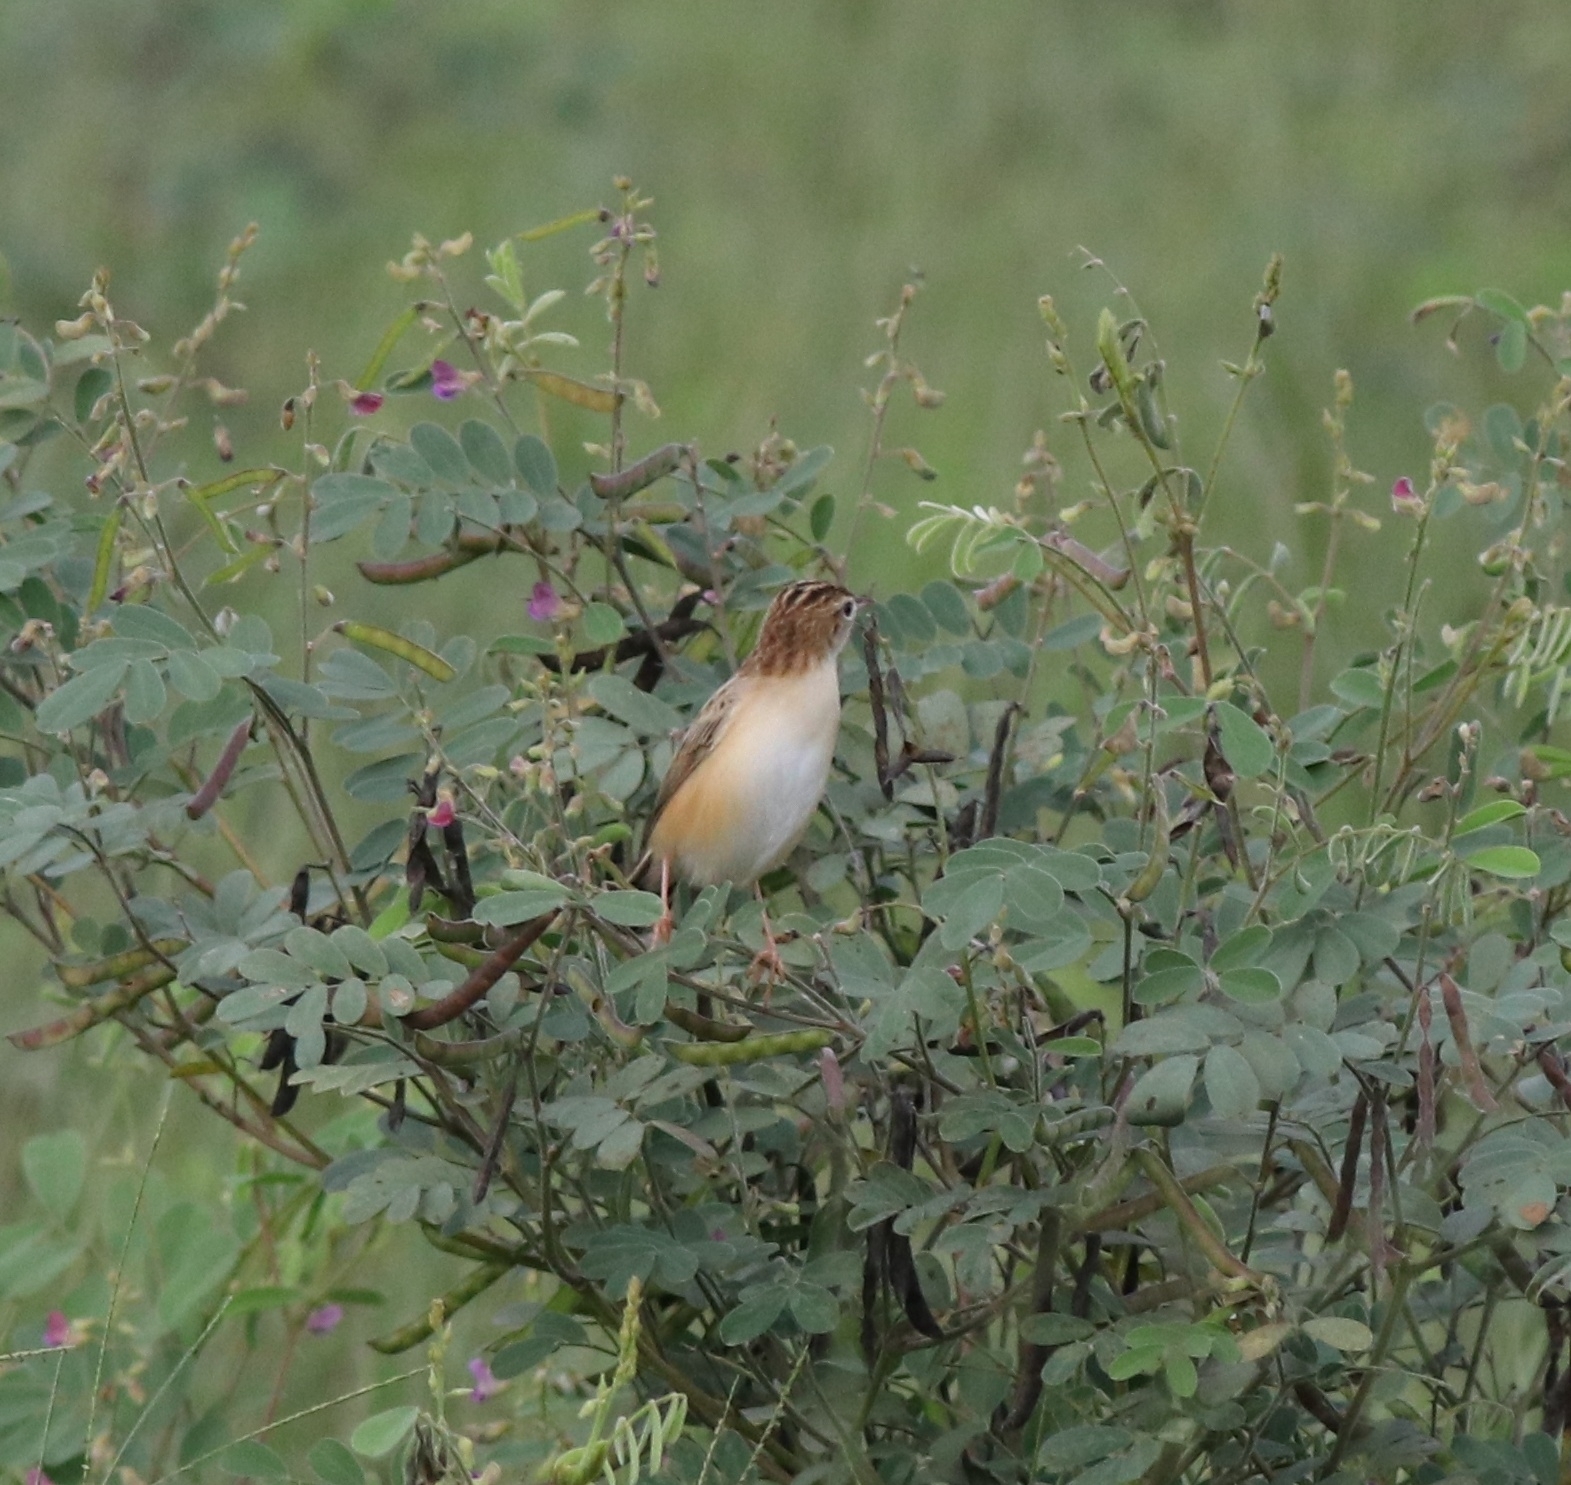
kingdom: Animalia
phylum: Chordata
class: Aves
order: Passeriformes
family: Cisticolidae
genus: Cisticola
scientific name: Cisticola juncidis
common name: Zitting cisticola
